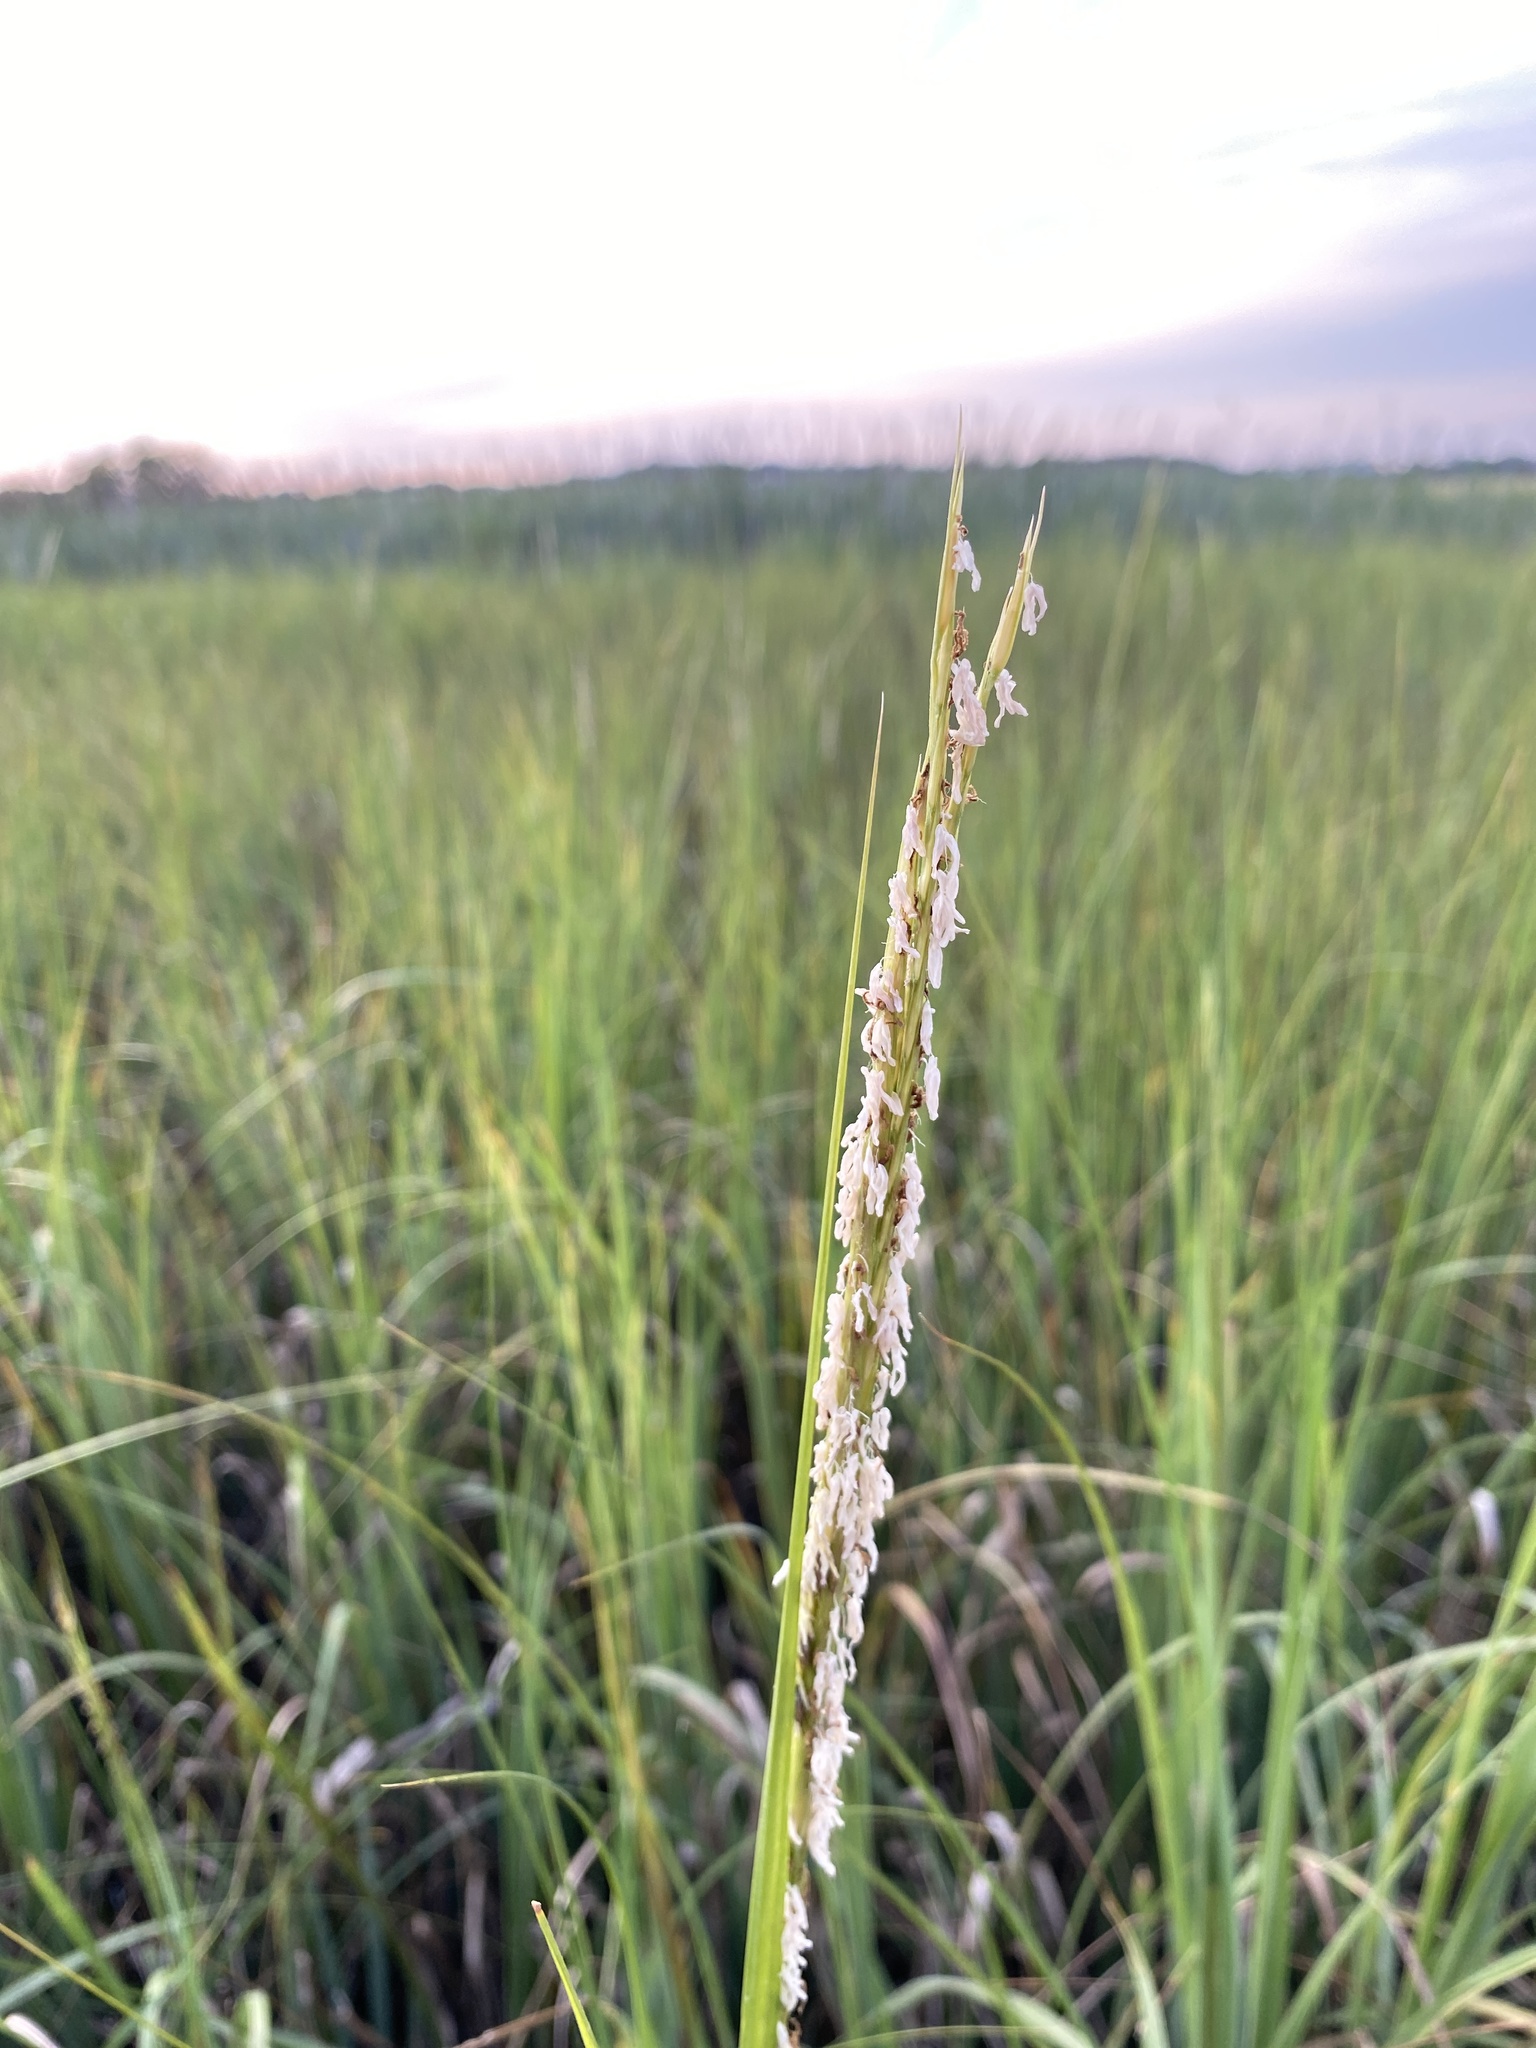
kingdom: Plantae
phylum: Tracheophyta
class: Liliopsida
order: Poales
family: Poaceae
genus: Sporobolus
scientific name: Sporobolus alterniflorus
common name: Atlantic cordgrass
